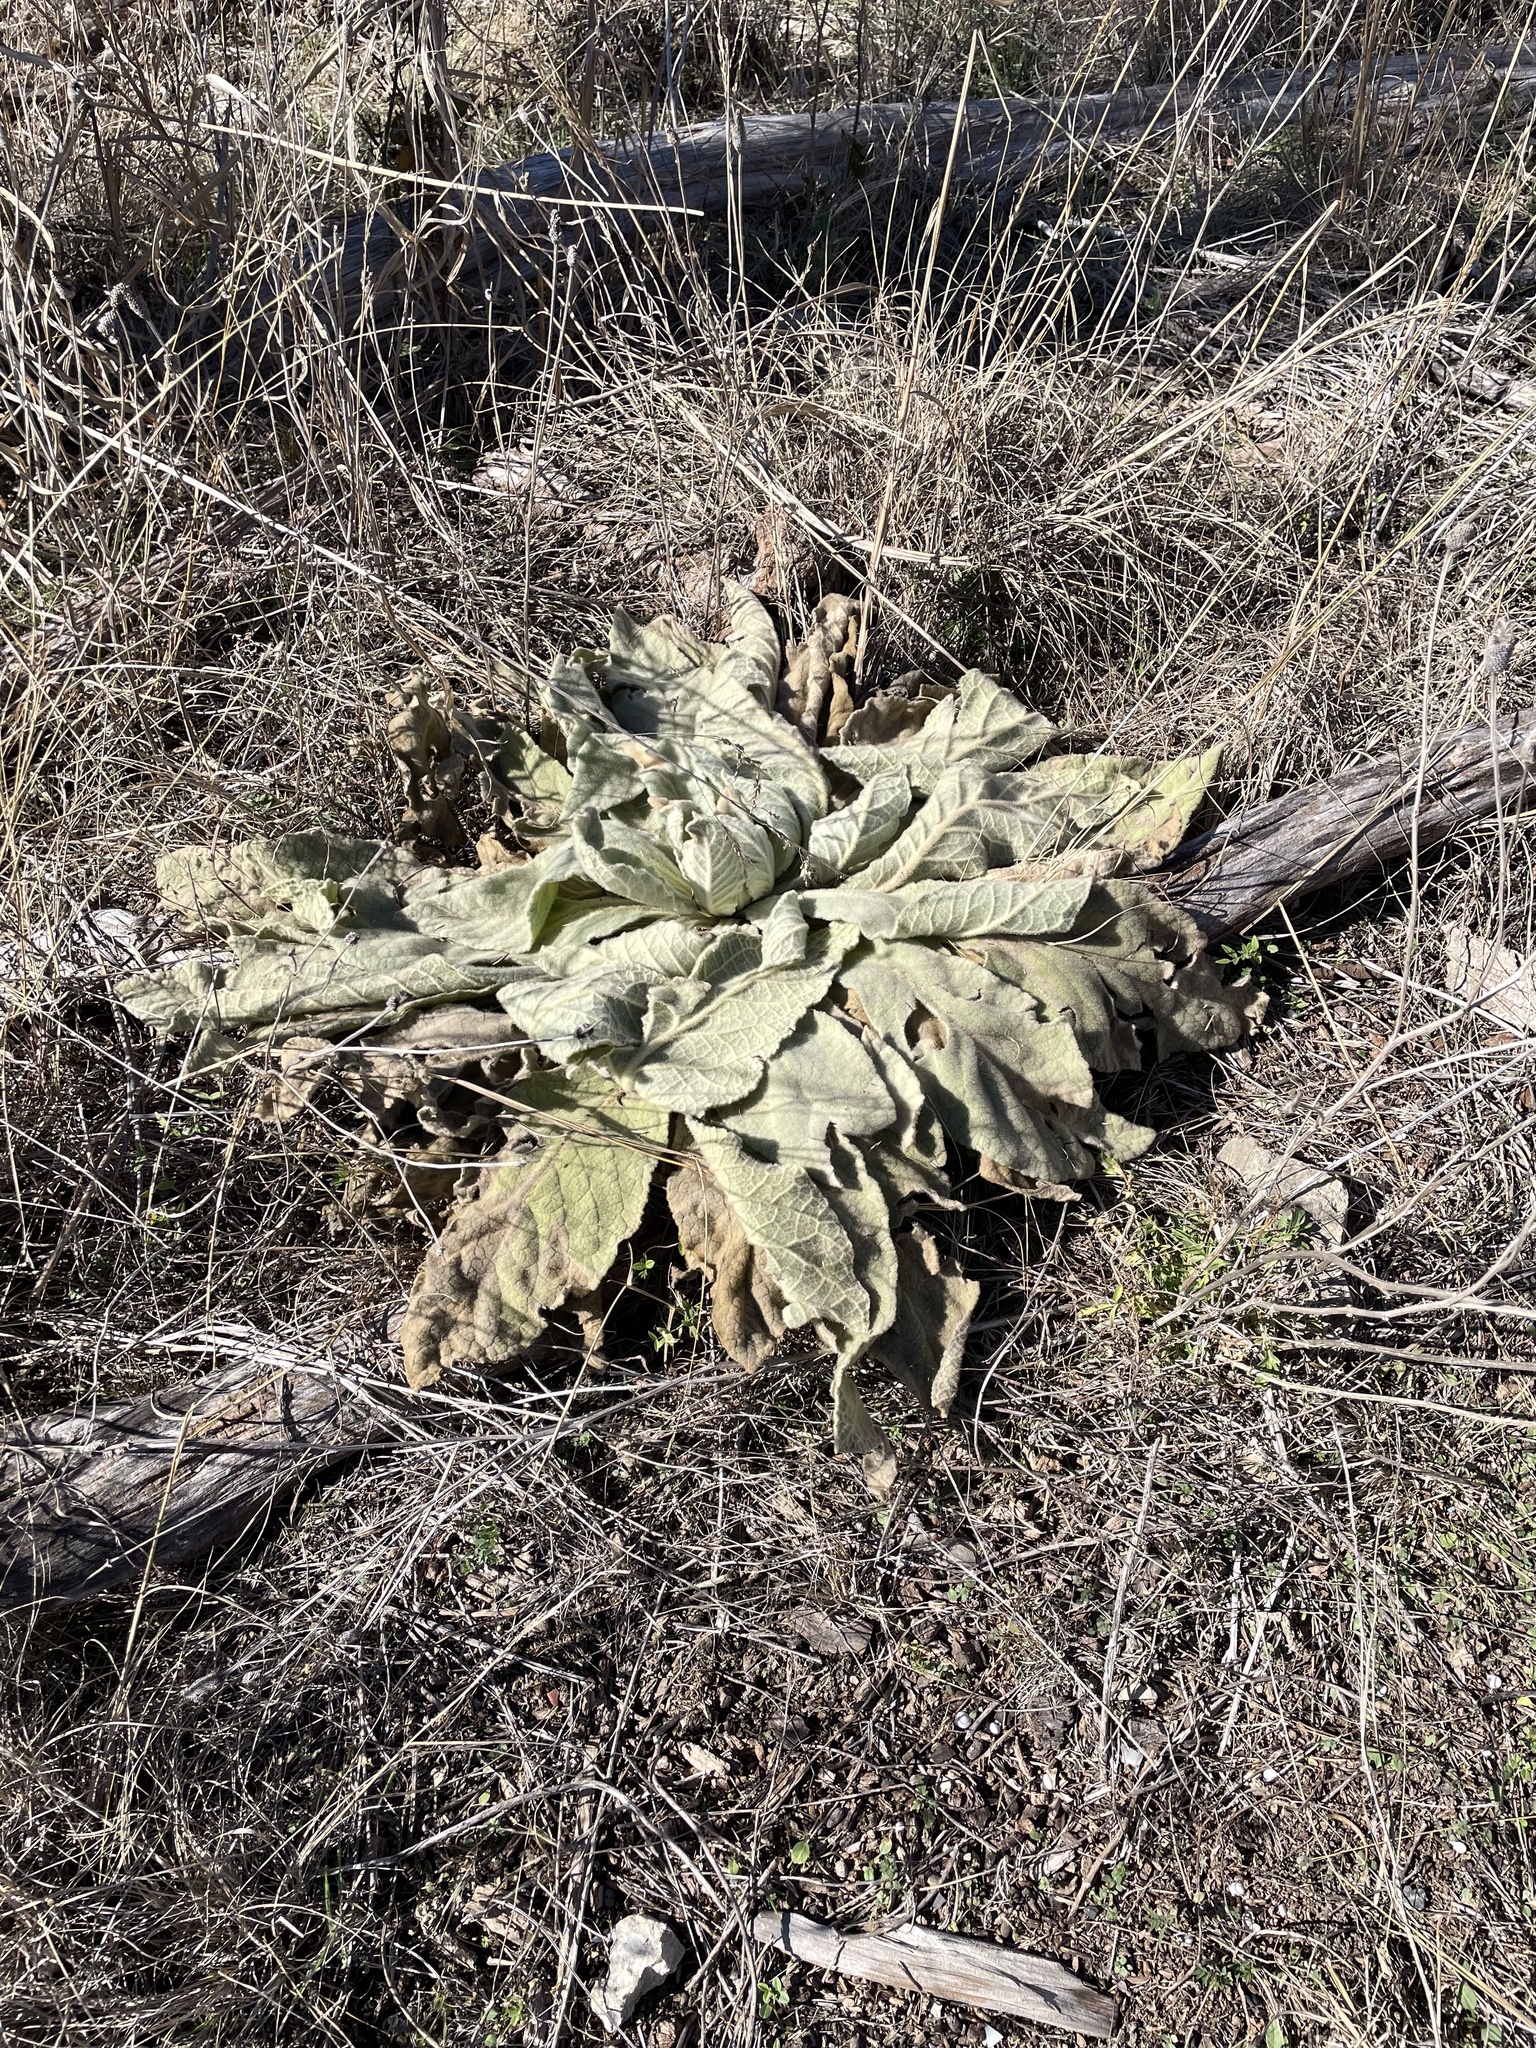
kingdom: Plantae
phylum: Tracheophyta
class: Magnoliopsida
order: Lamiales
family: Scrophulariaceae
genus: Verbascum
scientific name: Verbascum thapsus
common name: Common mullein
